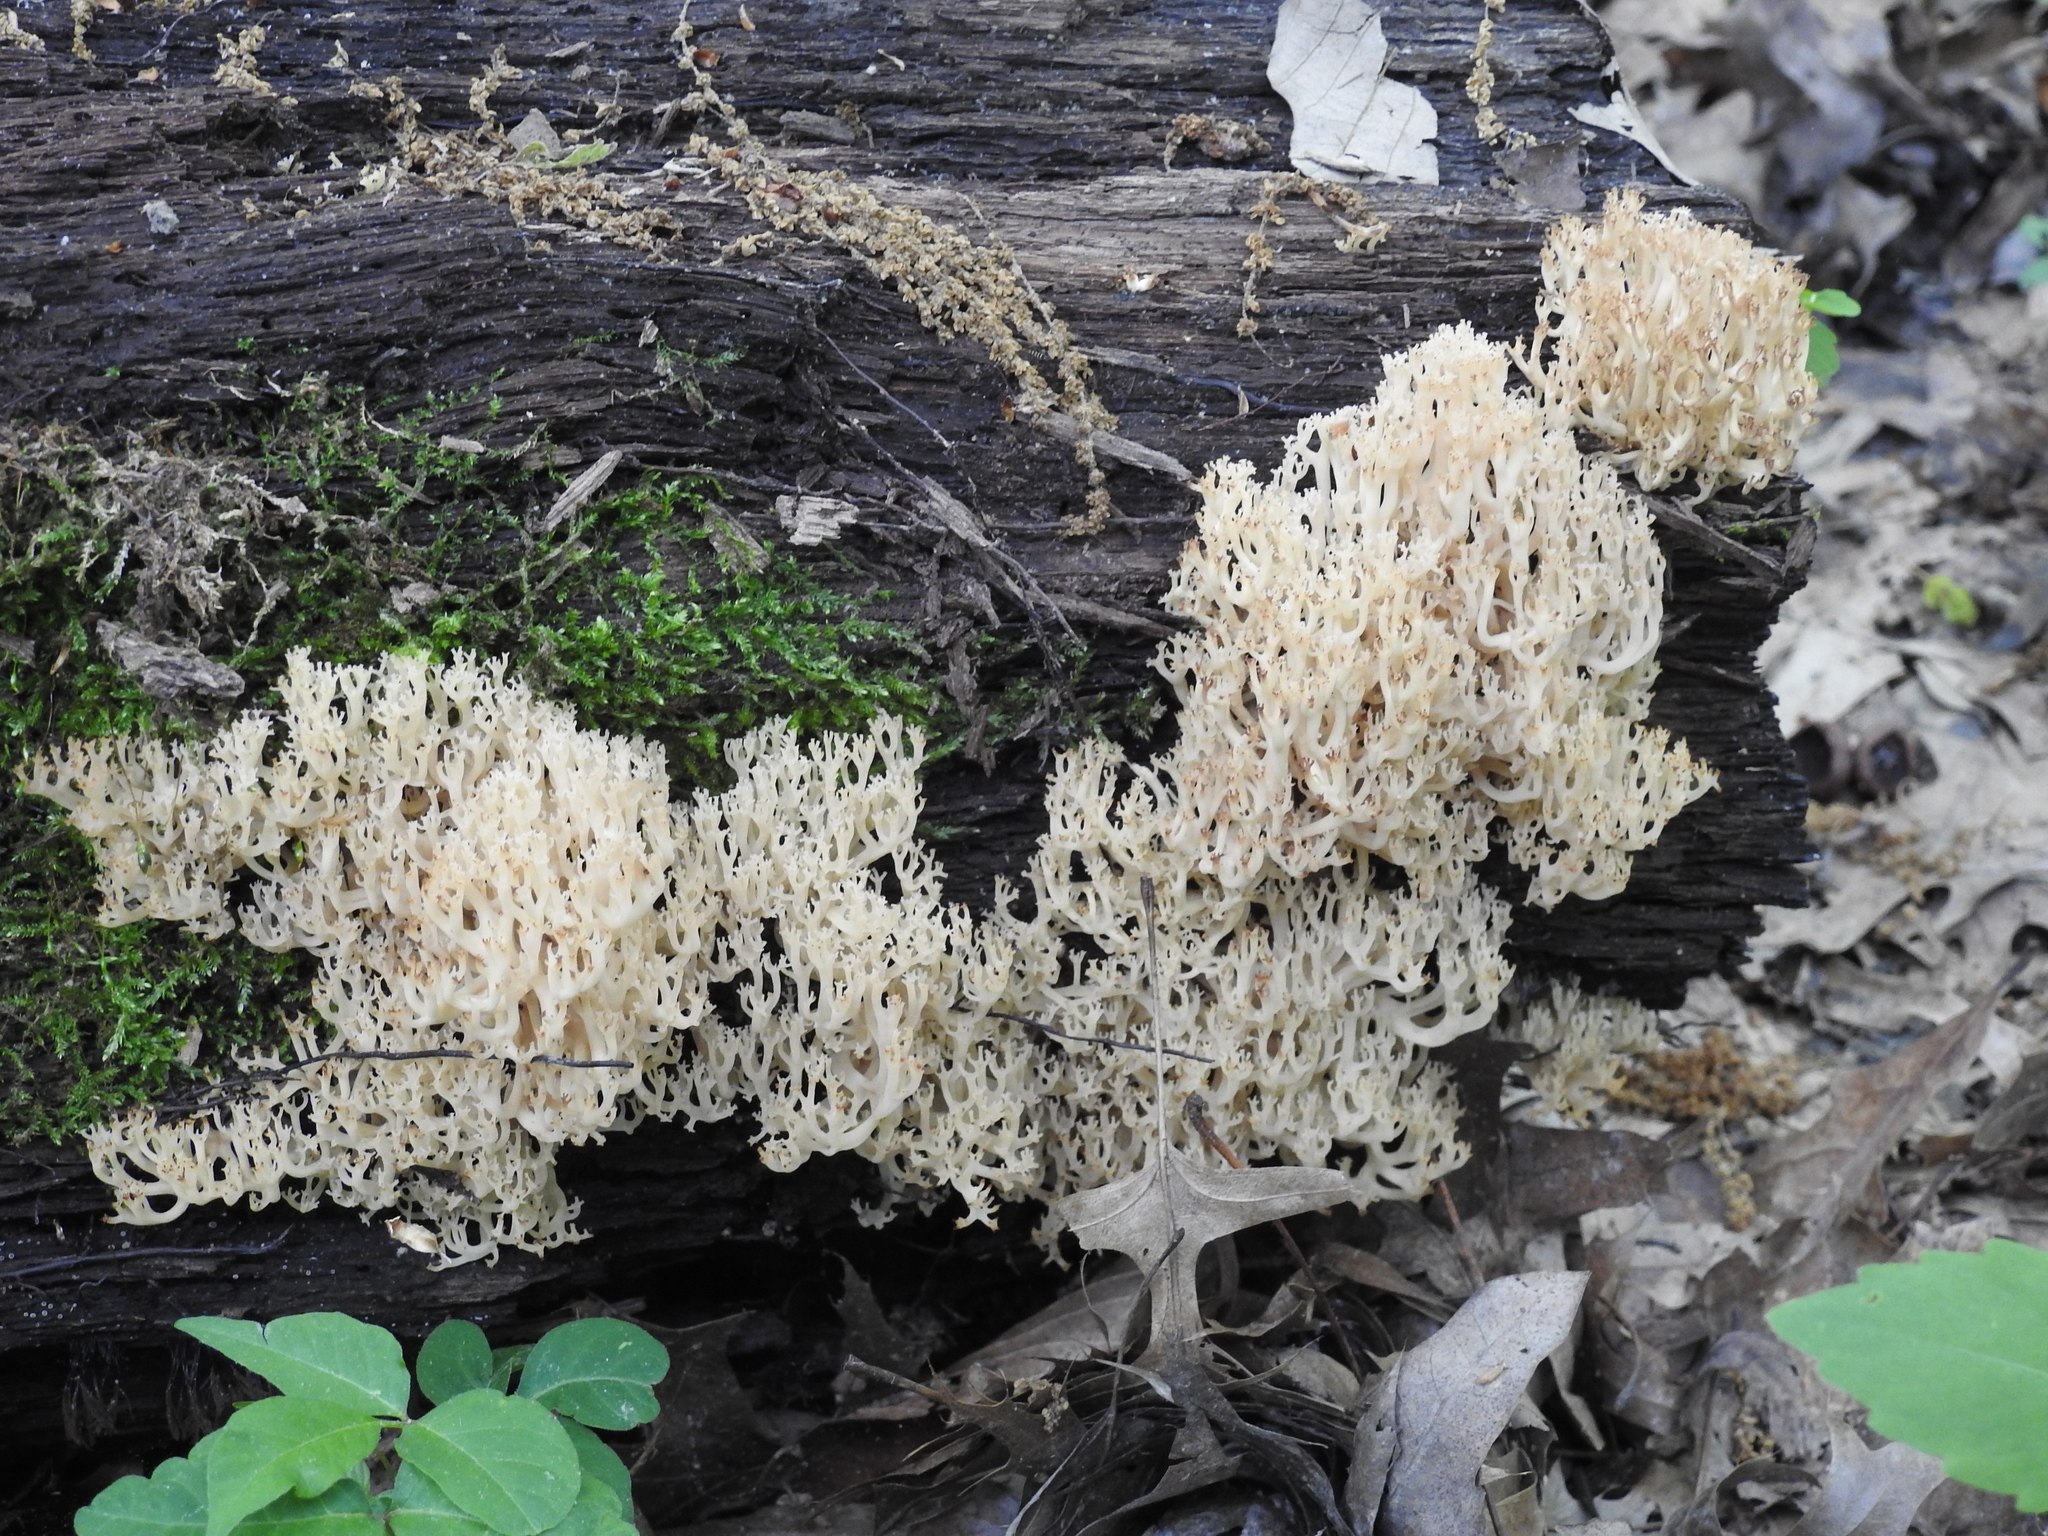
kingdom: Fungi
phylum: Basidiomycota
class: Agaricomycetes
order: Russulales
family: Auriscalpiaceae
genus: Artomyces
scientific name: Artomyces pyxidatus
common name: Crown-tipped coral fungus
